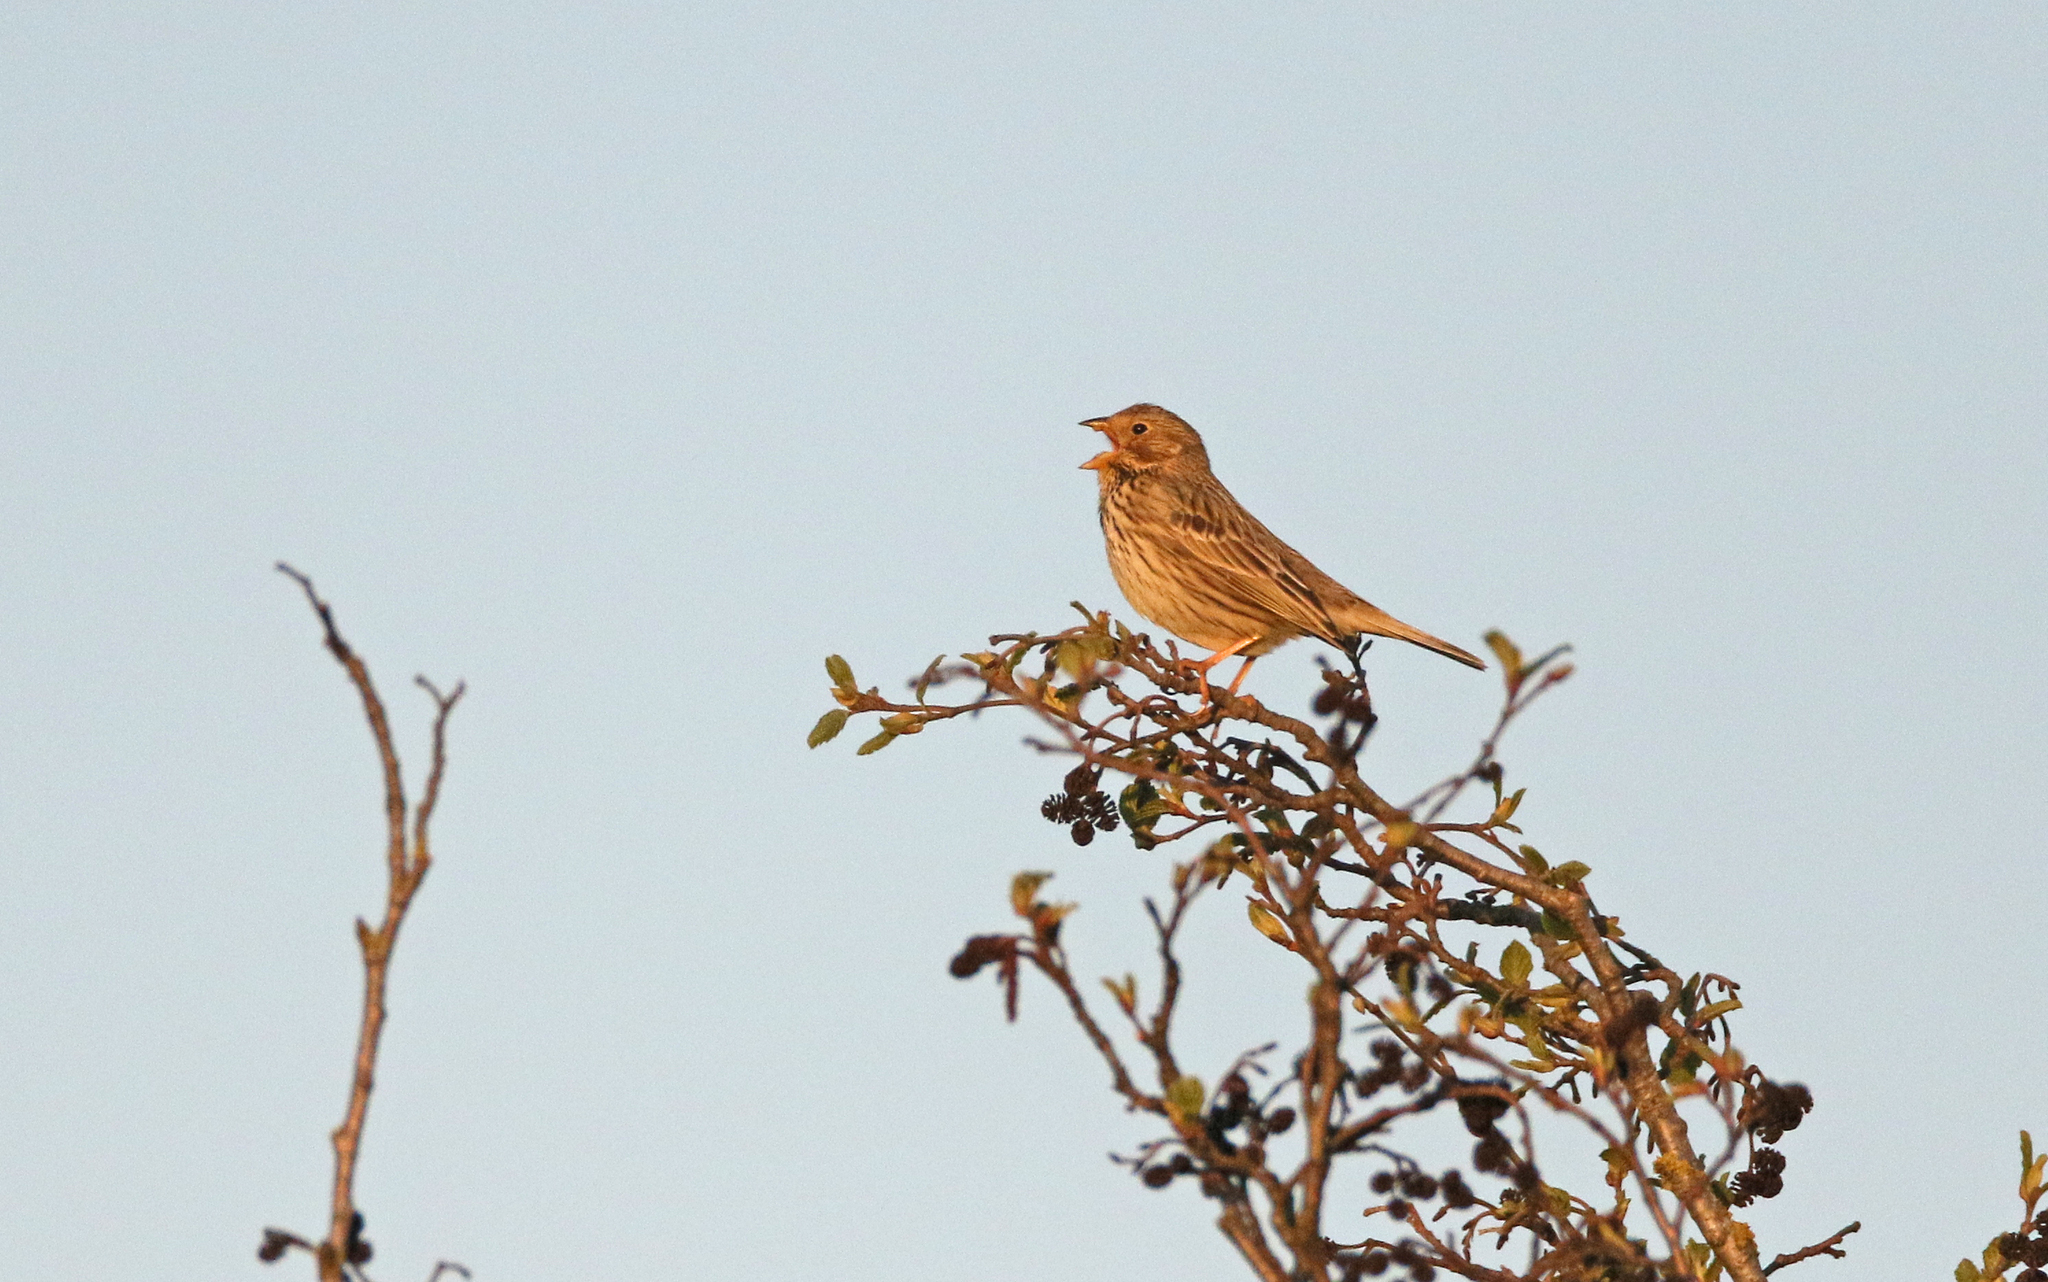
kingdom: Animalia
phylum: Chordata
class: Aves
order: Passeriformes
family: Emberizidae
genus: Emberiza
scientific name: Emberiza calandra
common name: Corn bunting
